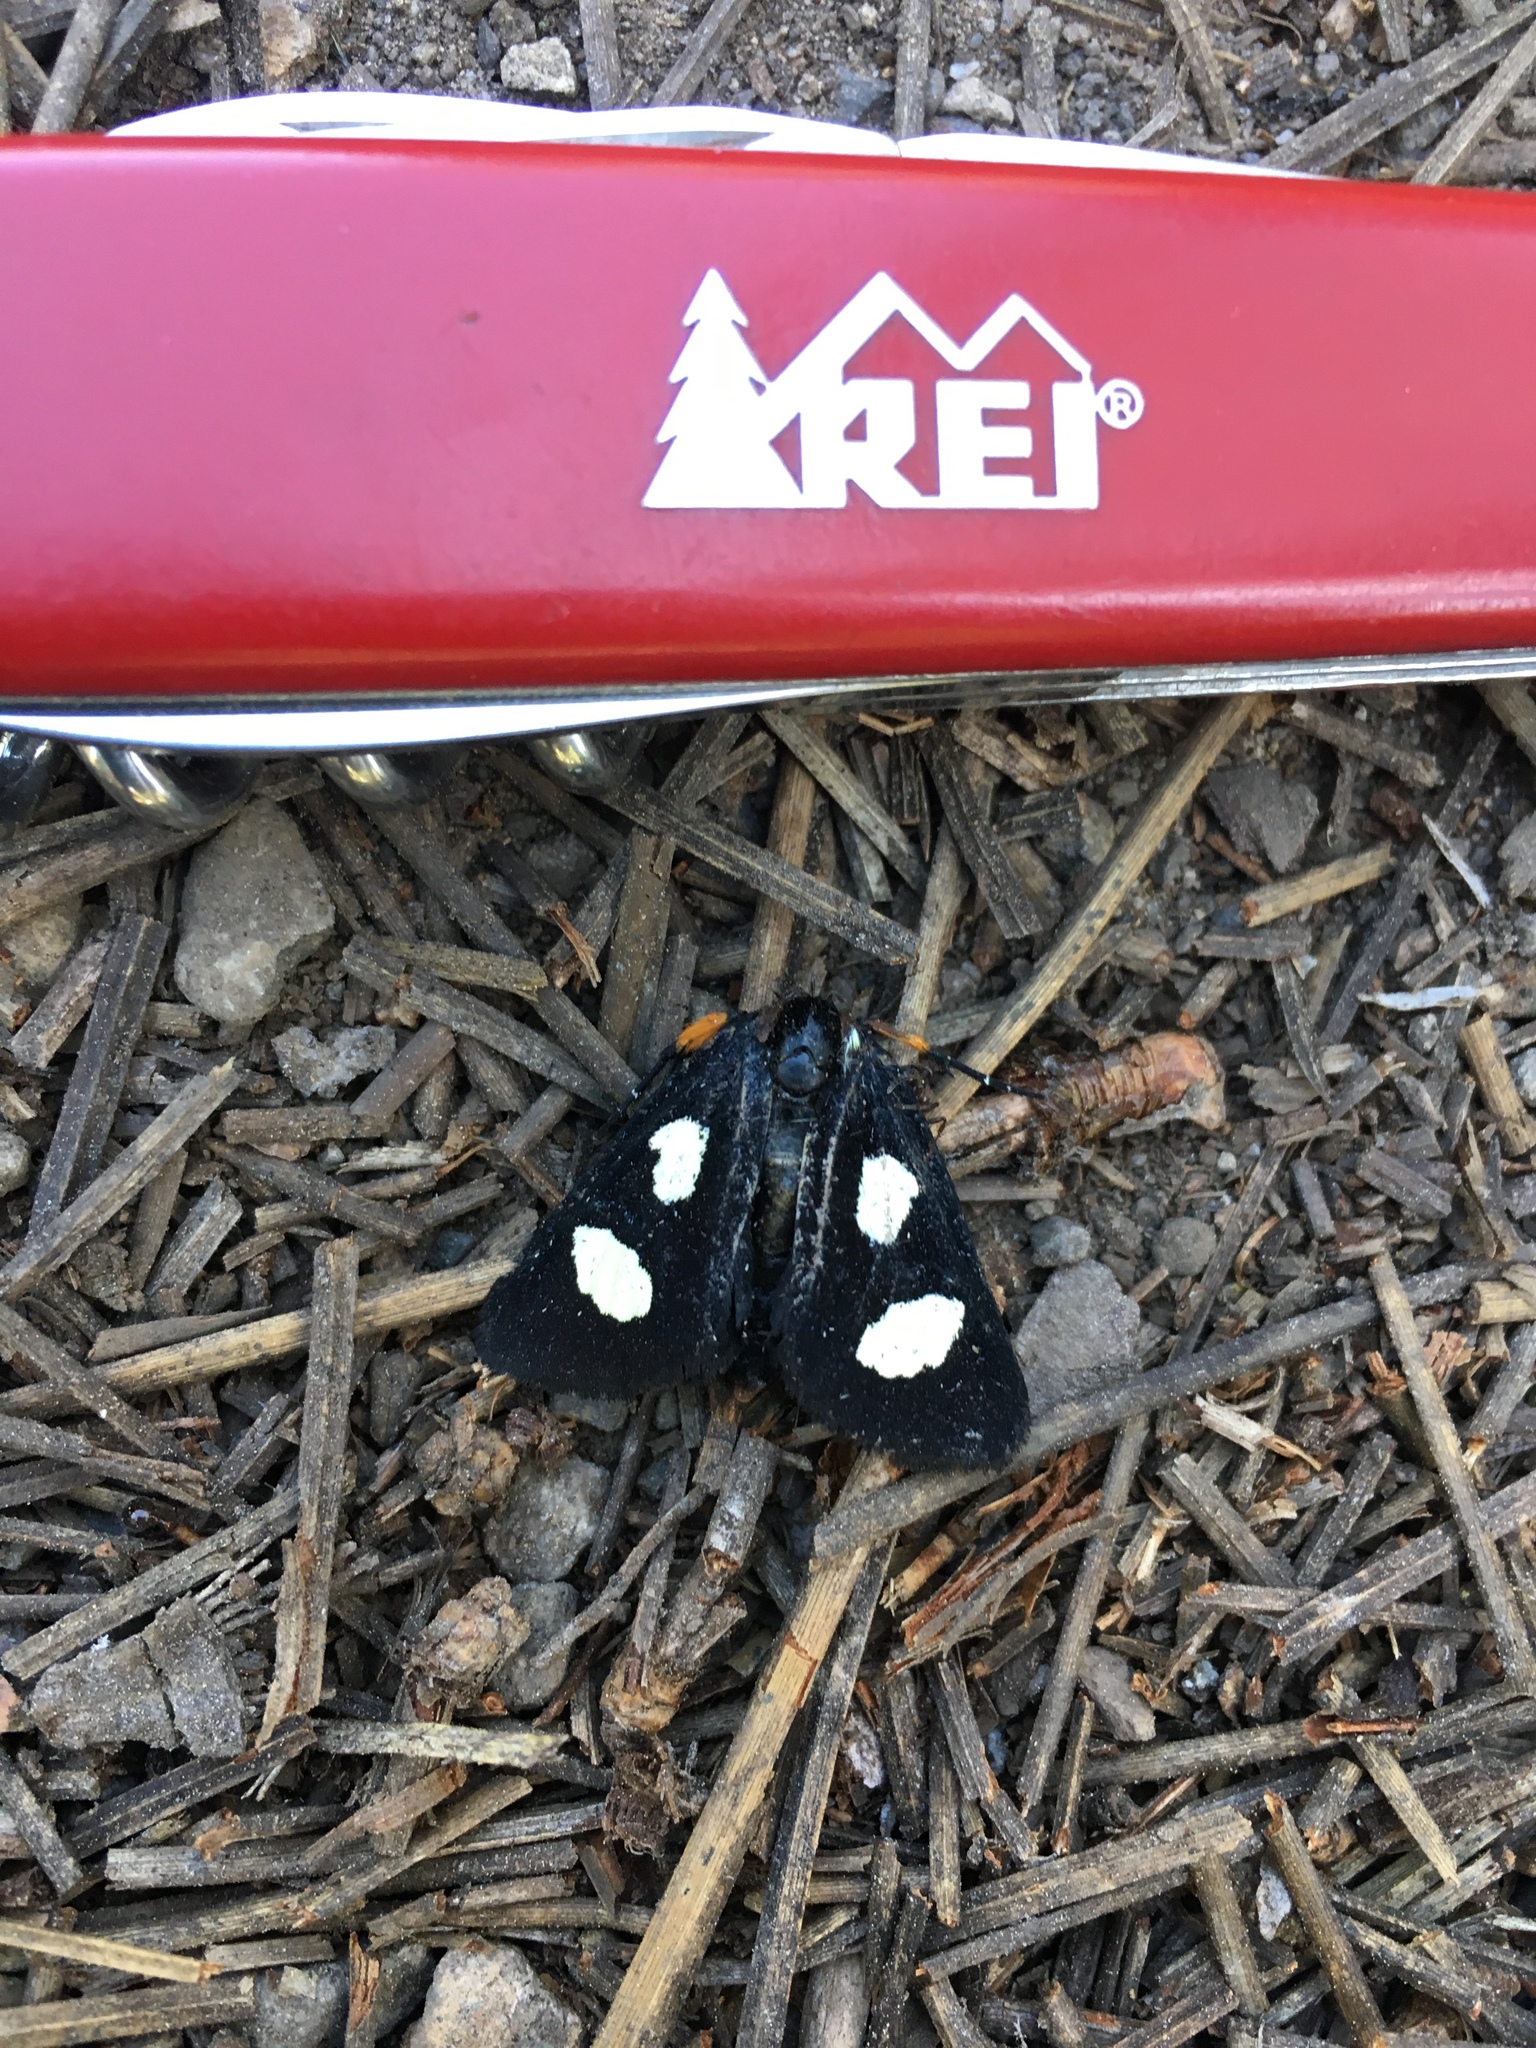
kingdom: Animalia
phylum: Arthropoda
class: Insecta
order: Lepidoptera
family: Noctuidae
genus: Alypia
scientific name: Alypia langtonii
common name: Fireweed caterpillar
